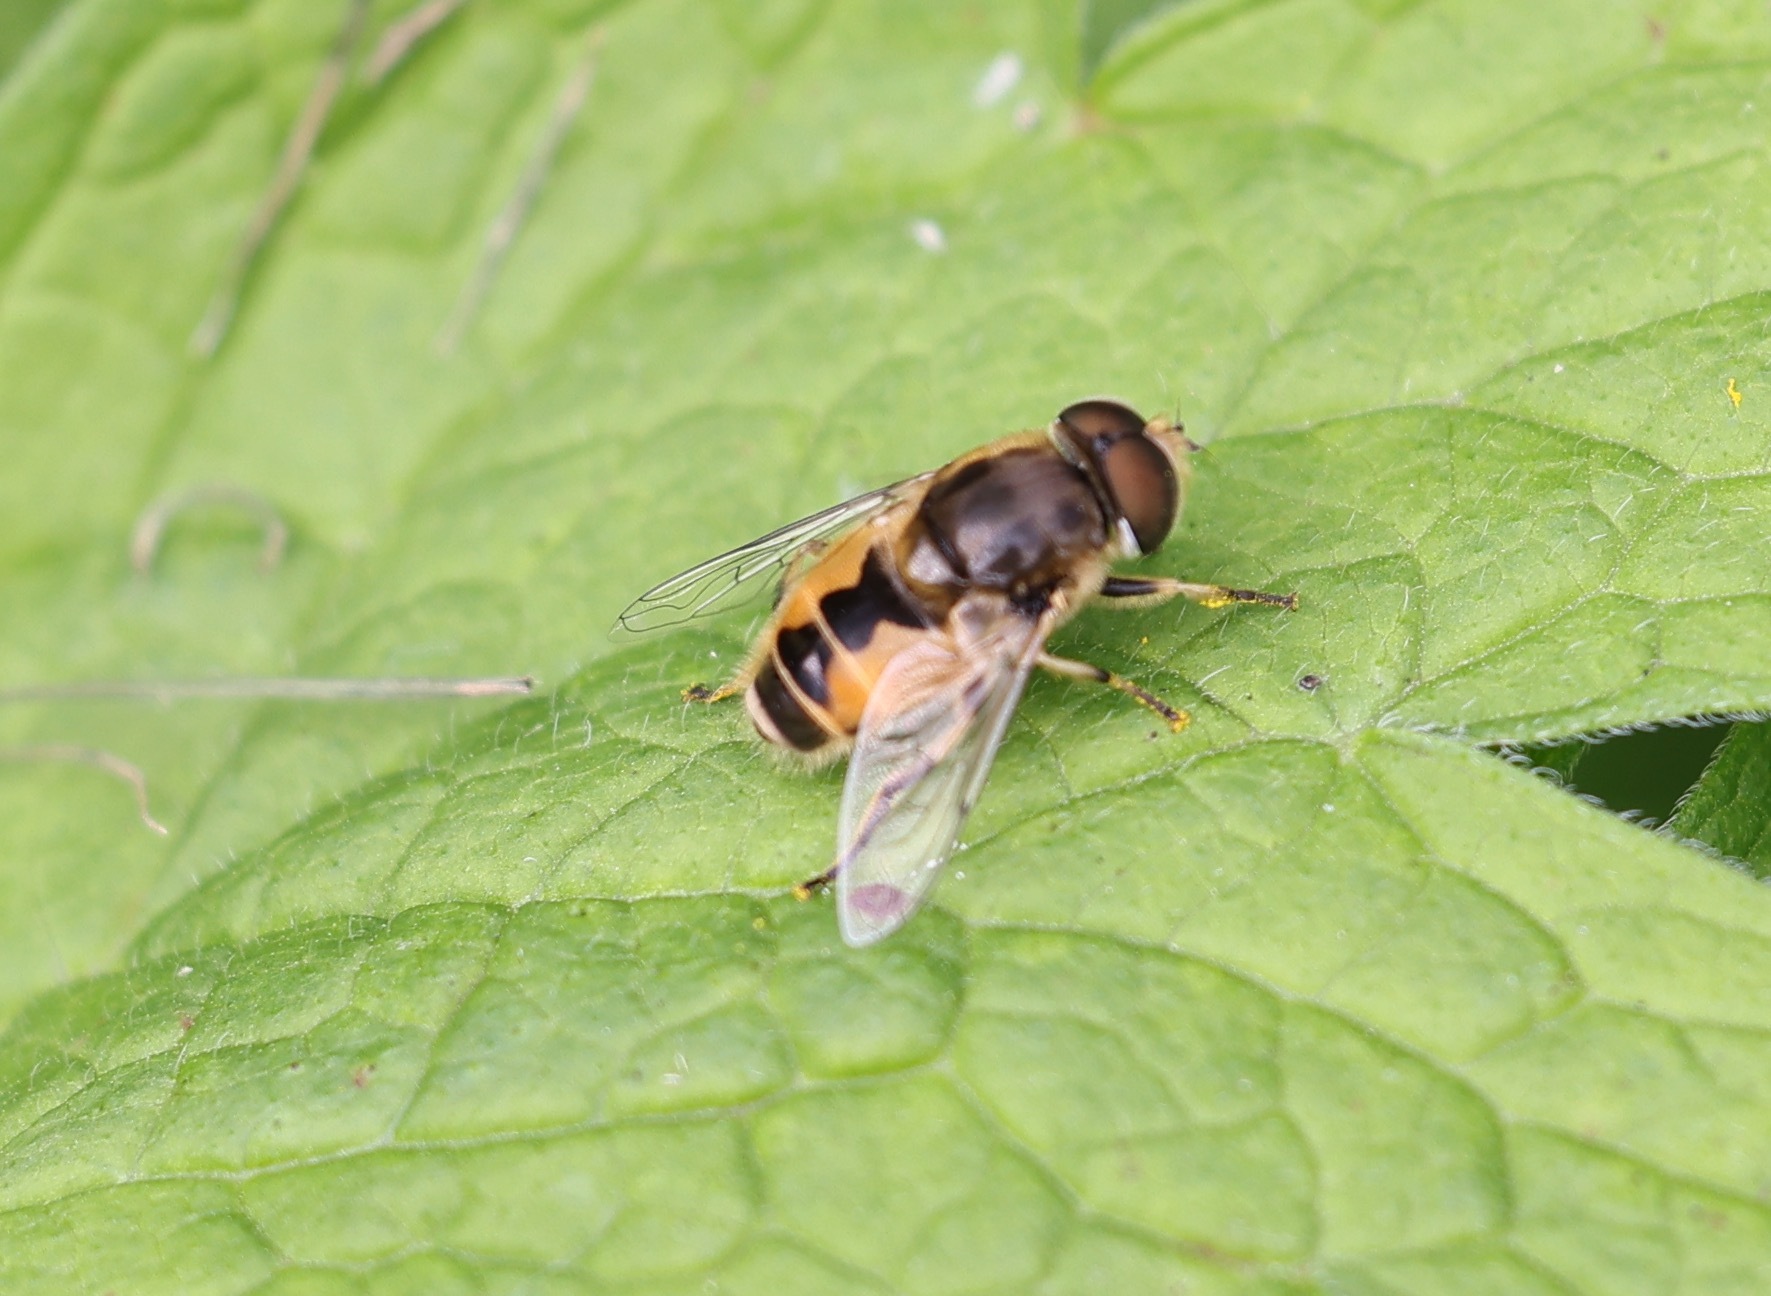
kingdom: Animalia
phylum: Arthropoda
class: Insecta
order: Diptera
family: Syrphidae
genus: Eristalis
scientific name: Eristalis arbustorum
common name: Hover fly
